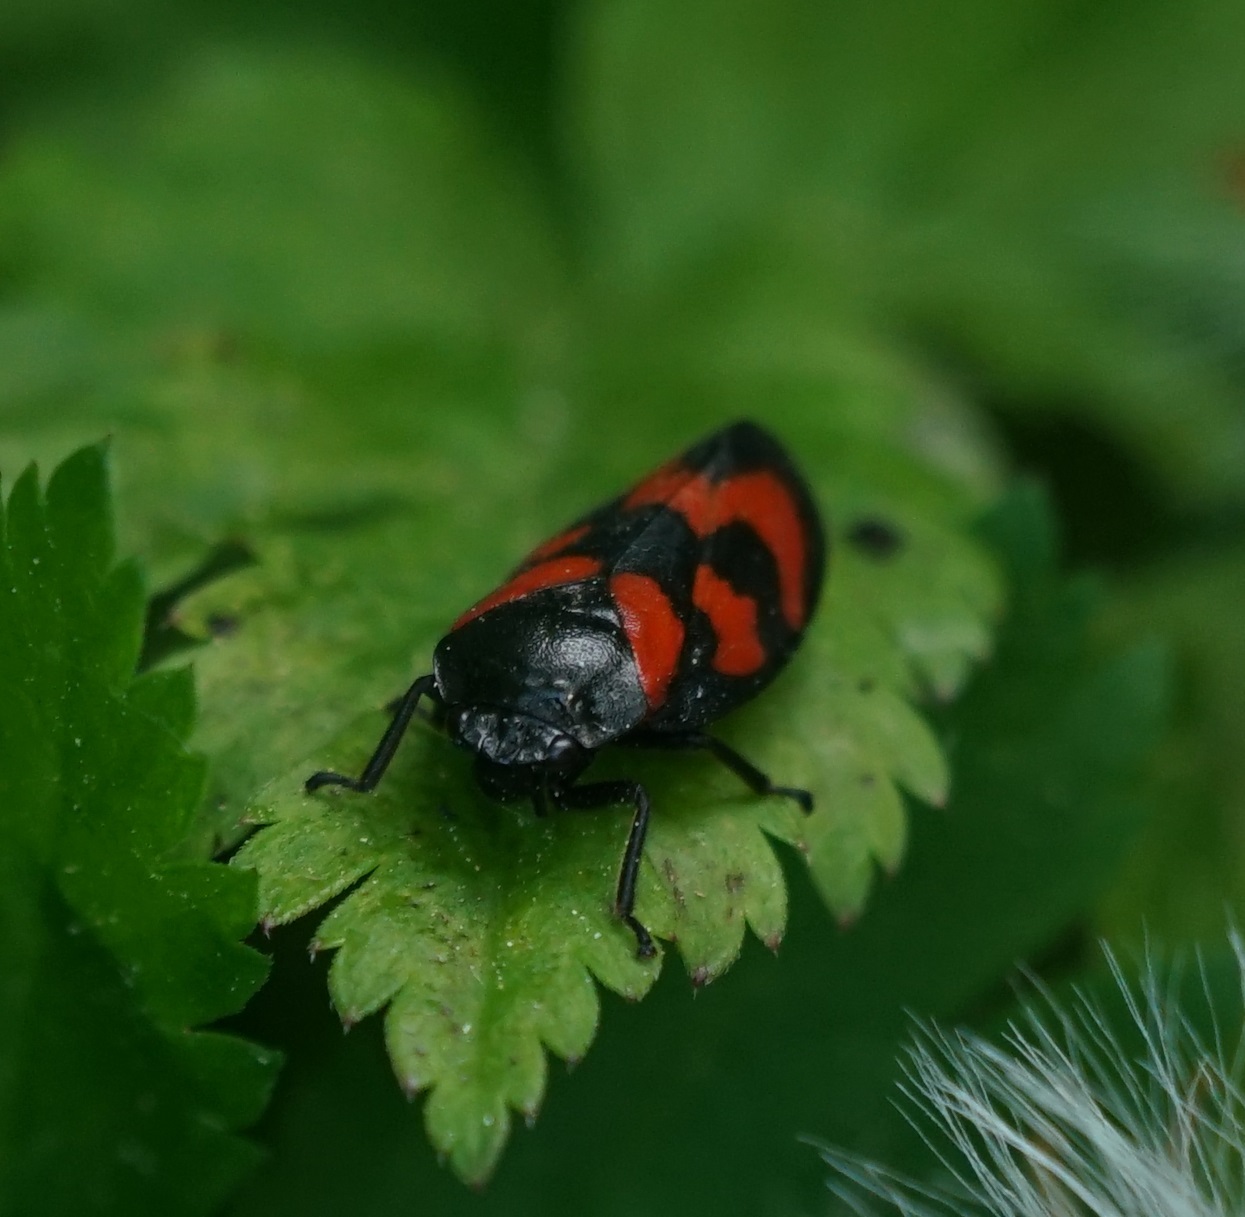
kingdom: Animalia
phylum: Arthropoda
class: Insecta
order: Hemiptera
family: Cercopidae
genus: Cercopis
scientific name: Cercopis vulnerata
